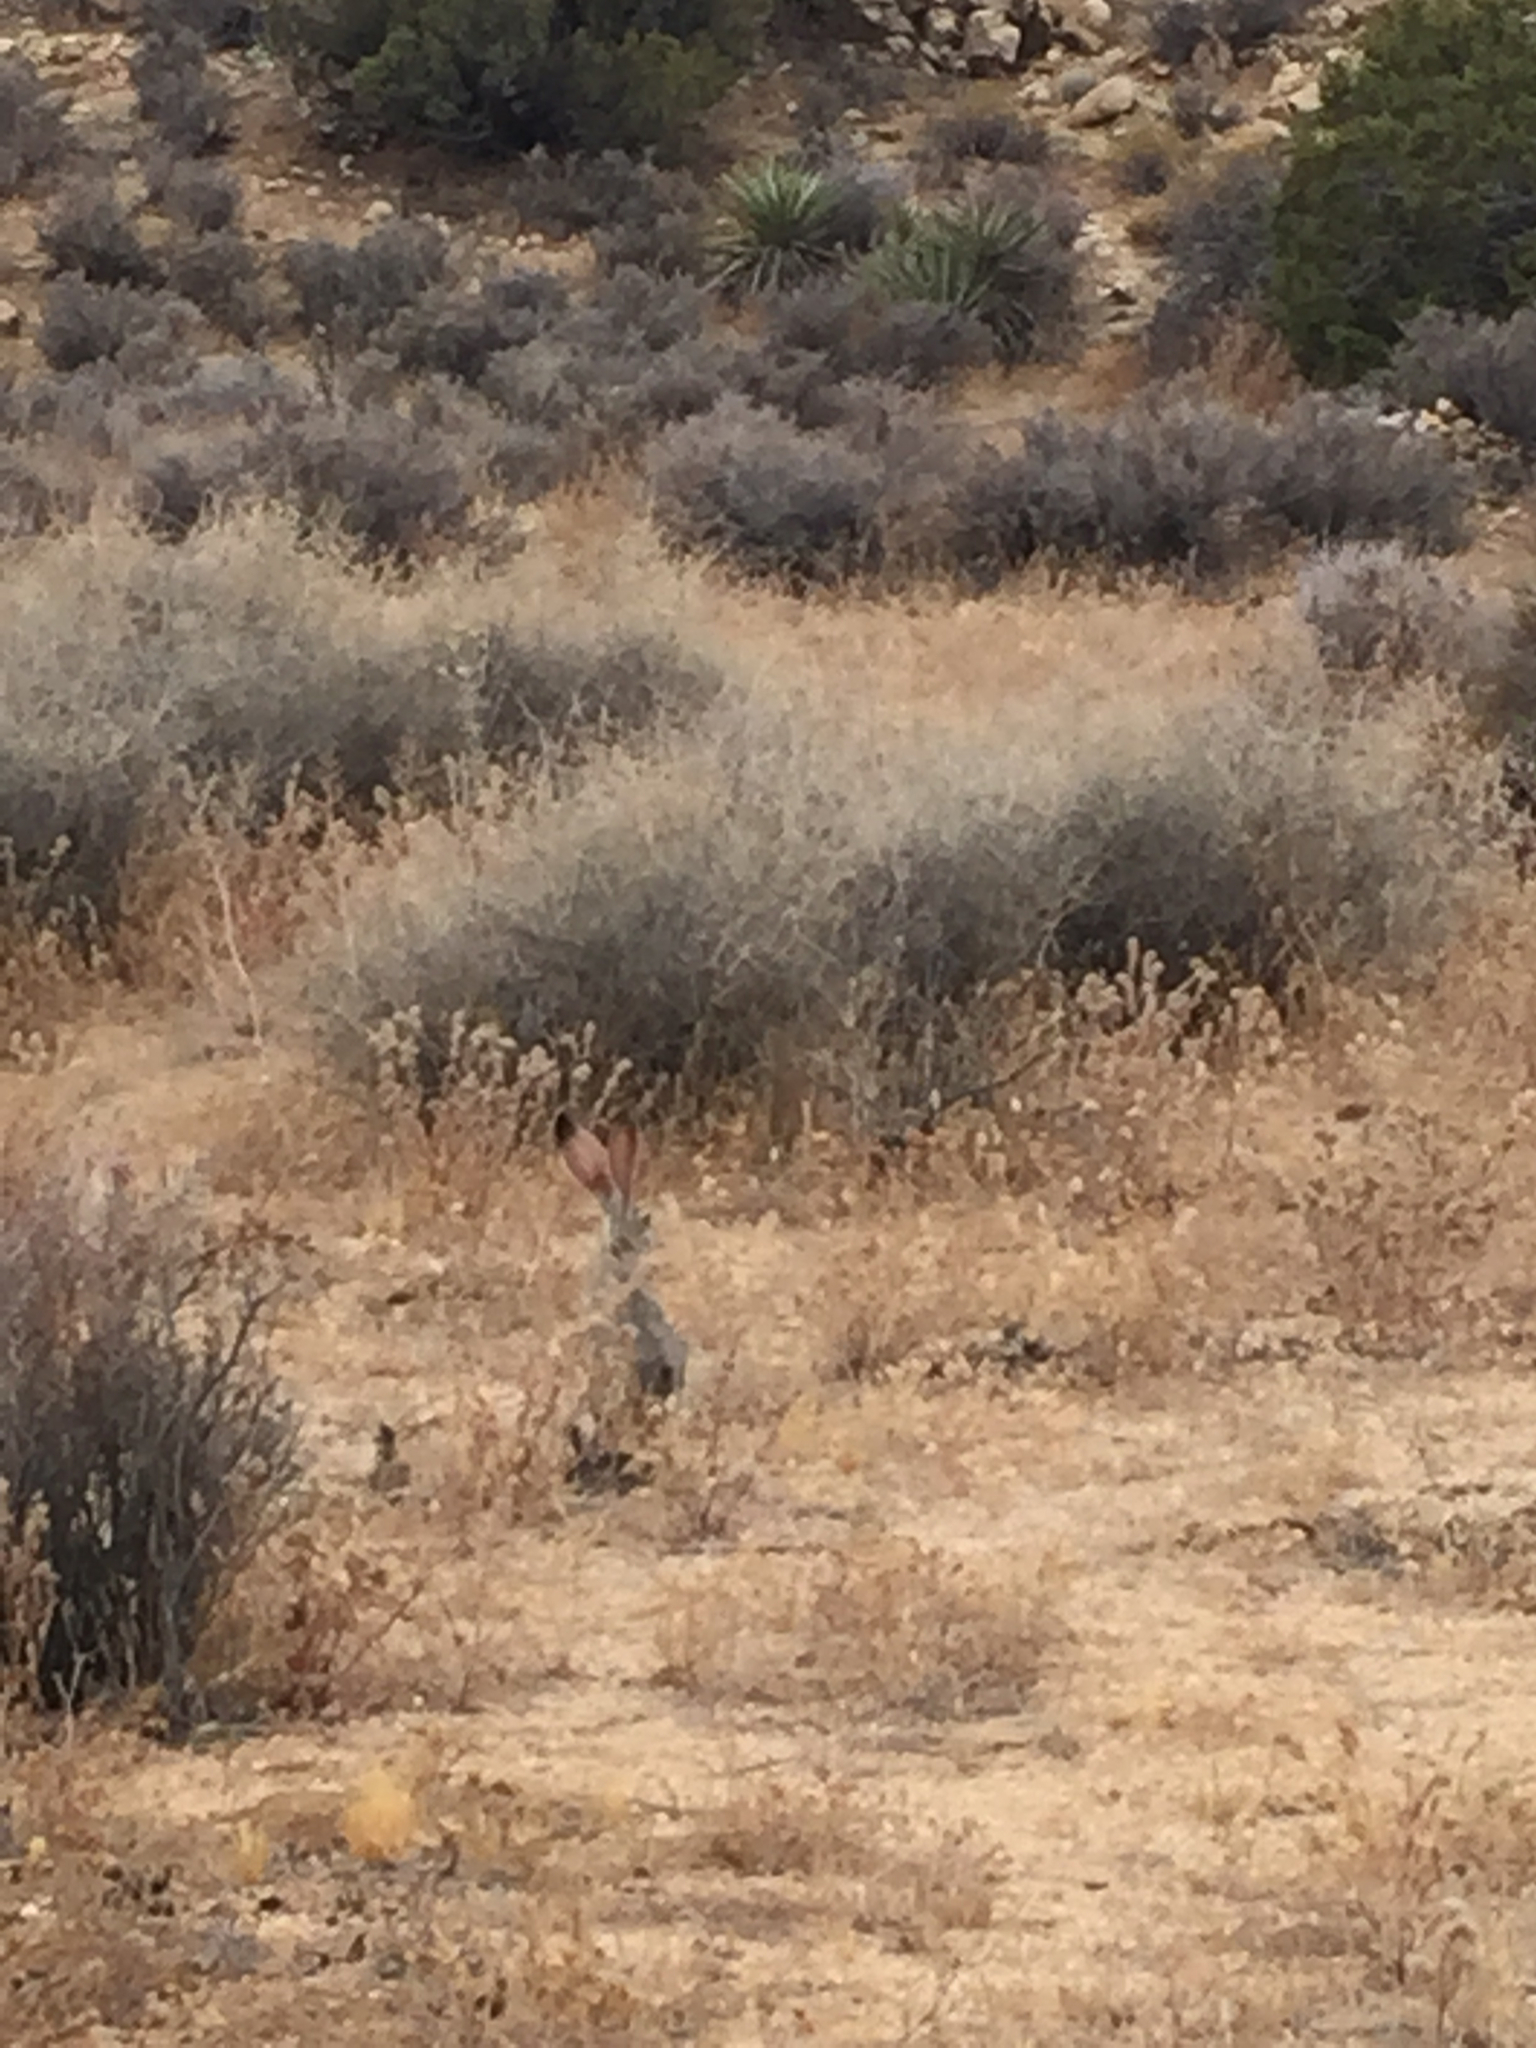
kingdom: Animalia
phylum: Chordata
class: Mammalia
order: Lagomorpha
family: Leporidae
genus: Lepus
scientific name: Lepus californicus
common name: Black-tailed jackrabbit
